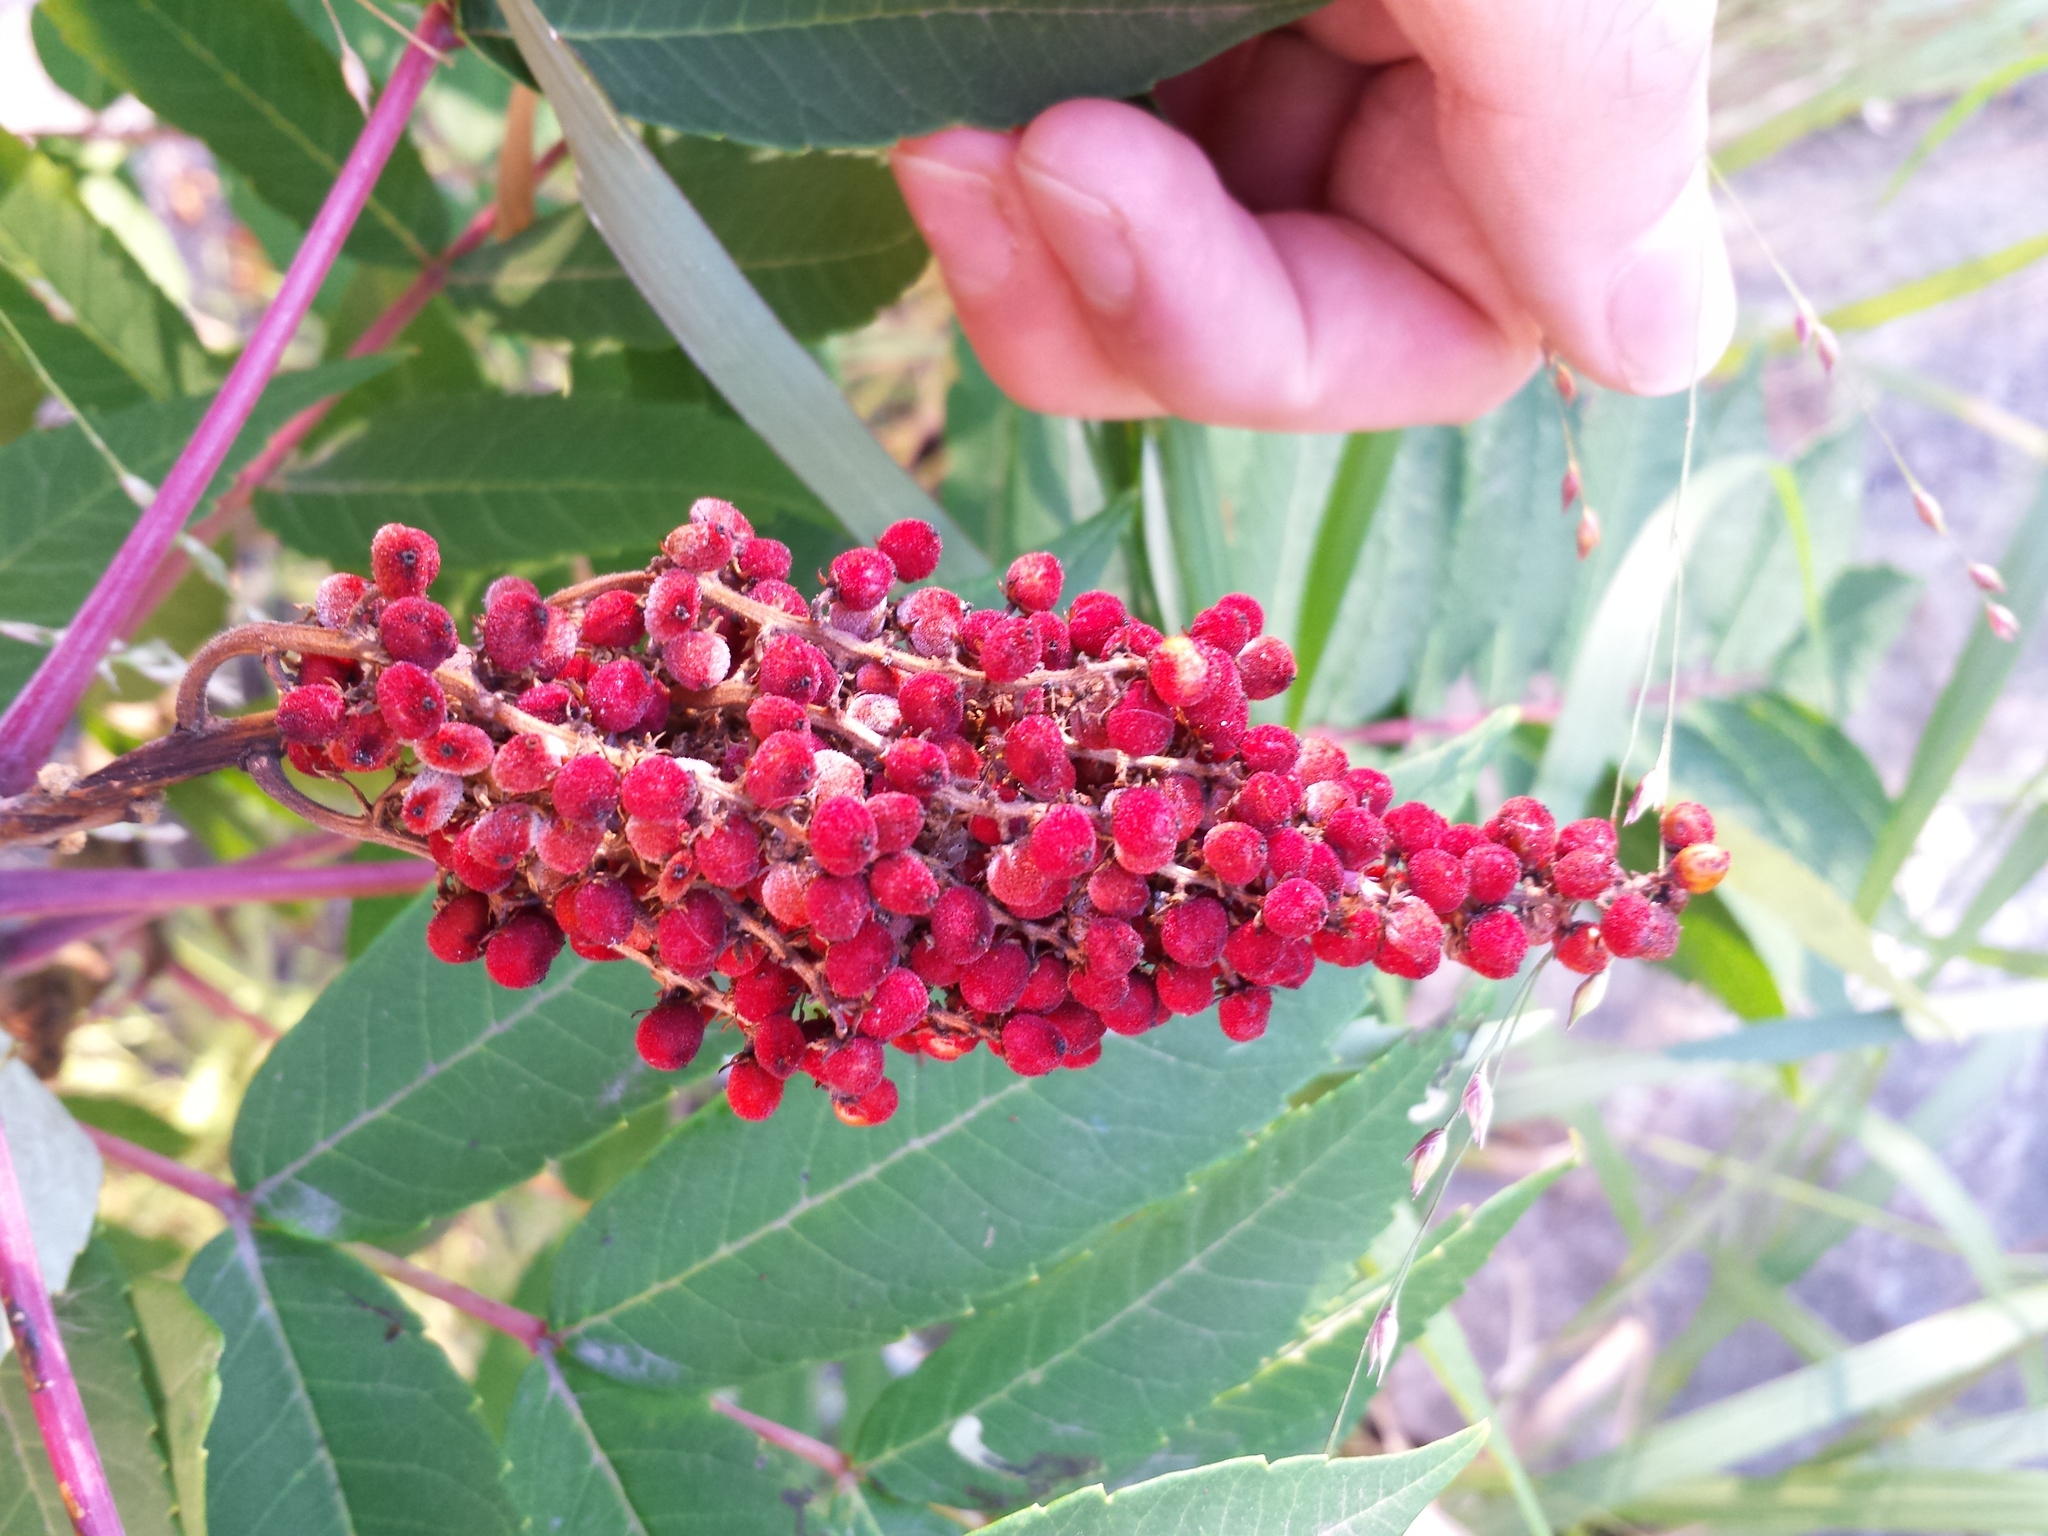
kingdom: Plantae
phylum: Tracheophyta
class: Magnoliopsida
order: Sapindales
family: Anacardiaceae
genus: Rhus
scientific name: Rhus glabra
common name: Scarlet sumac
